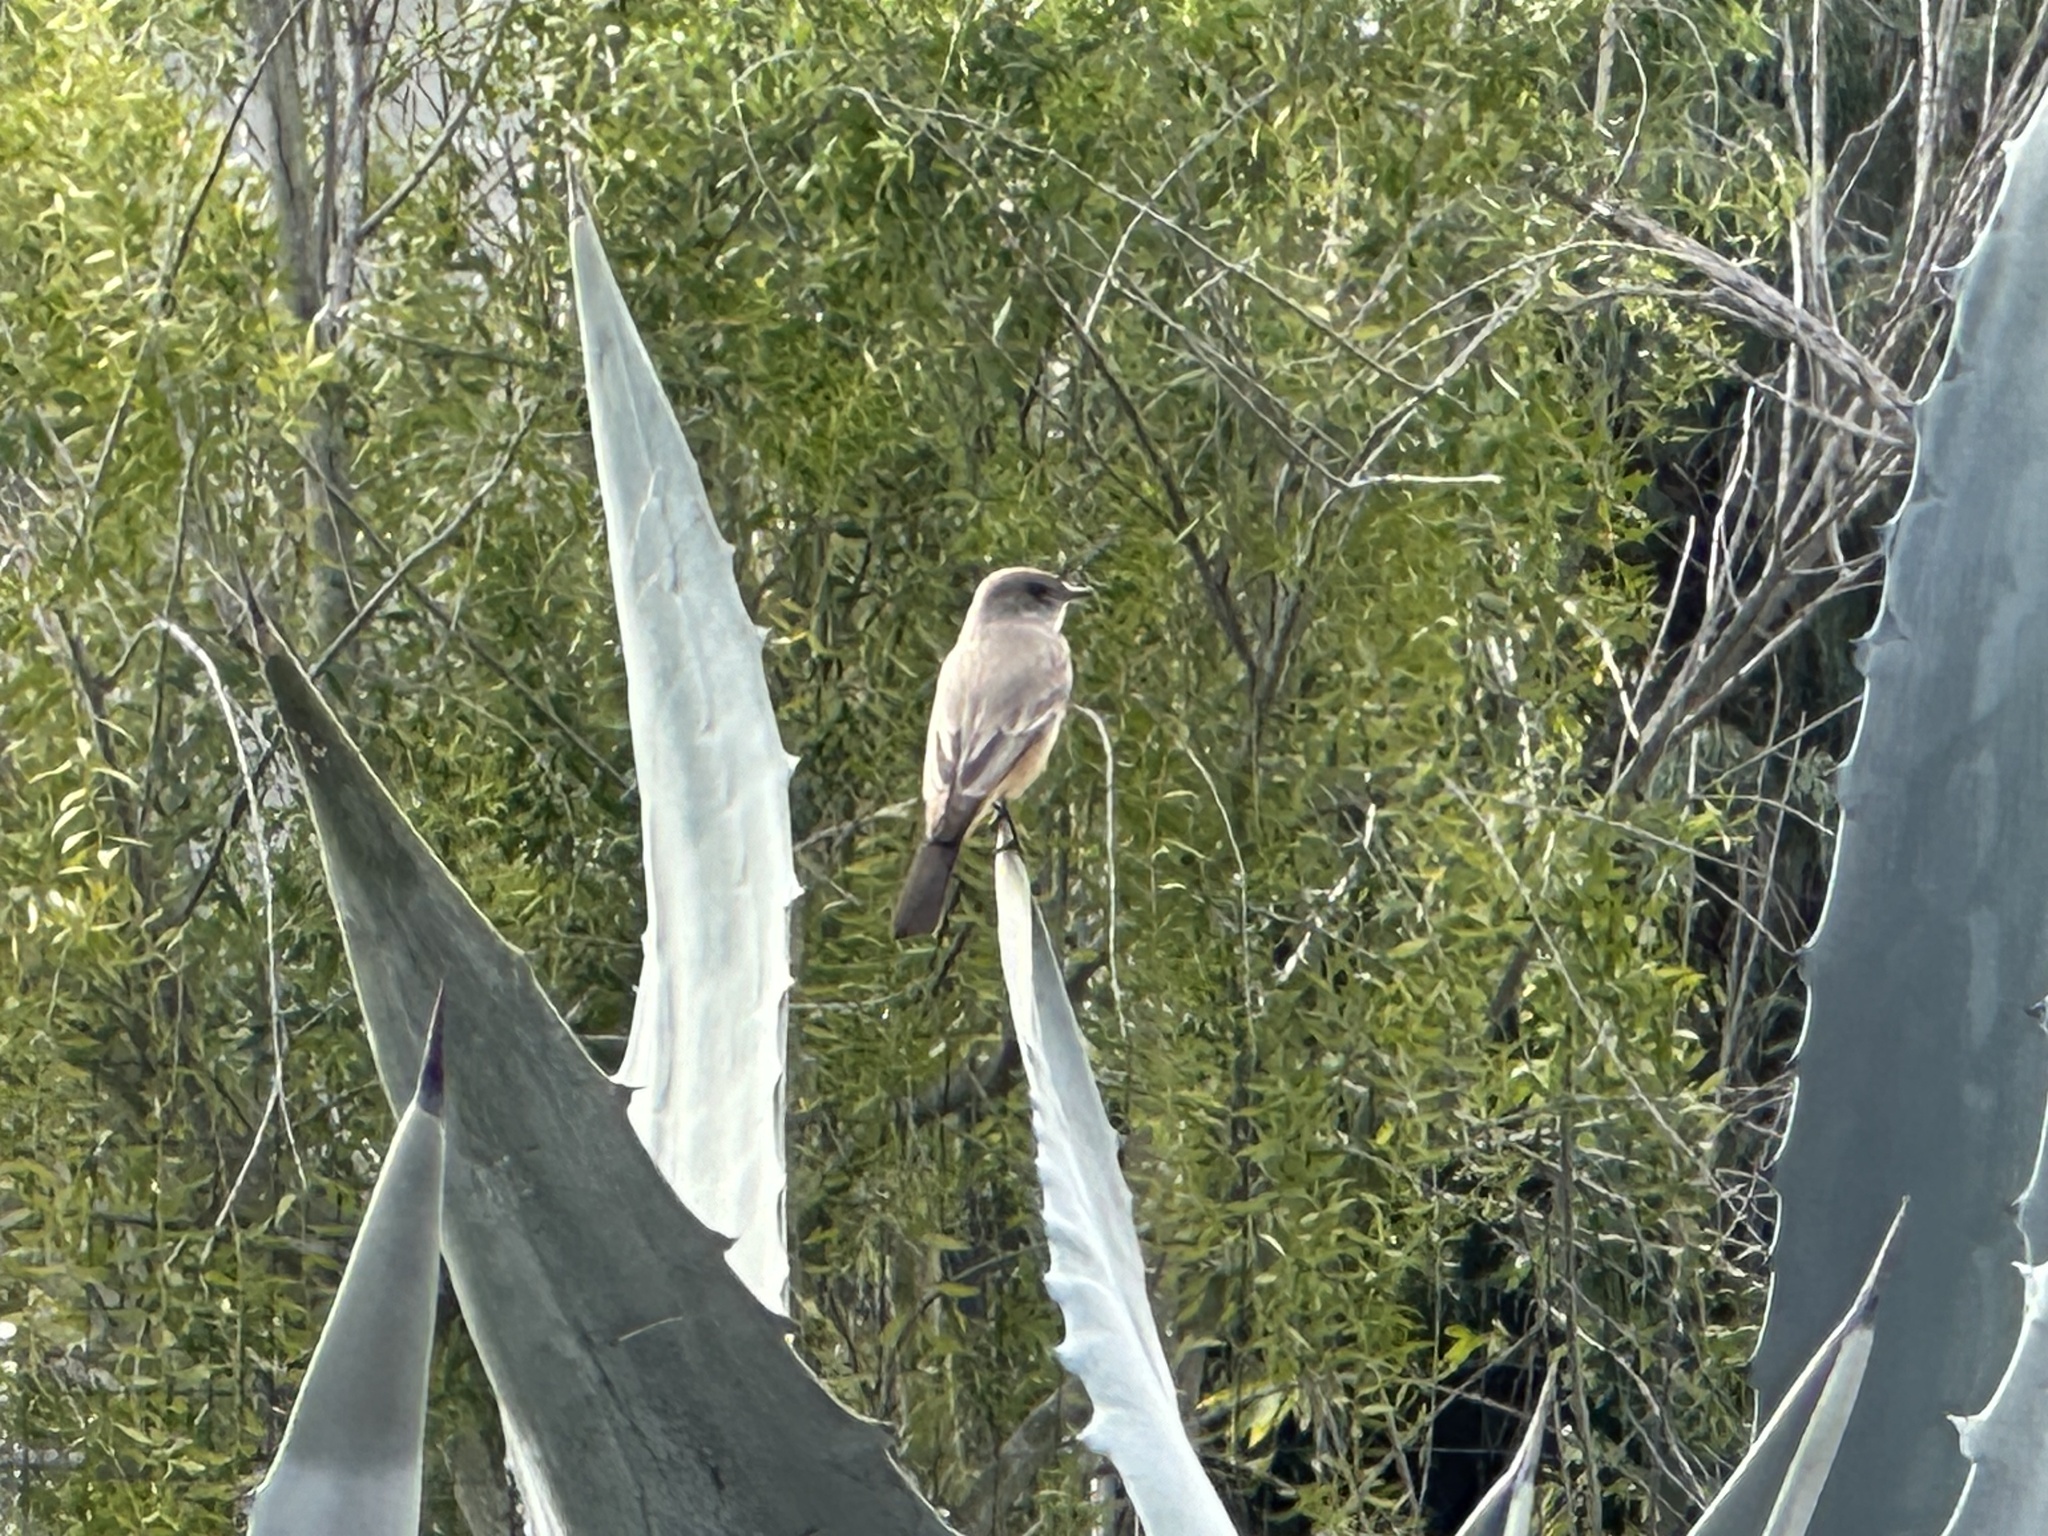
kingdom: Animalia
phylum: Chordata
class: Aves
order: Passeriformes
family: Tyrannidae
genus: Sayornis
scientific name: Sayornis saya
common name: Say's phoebe
